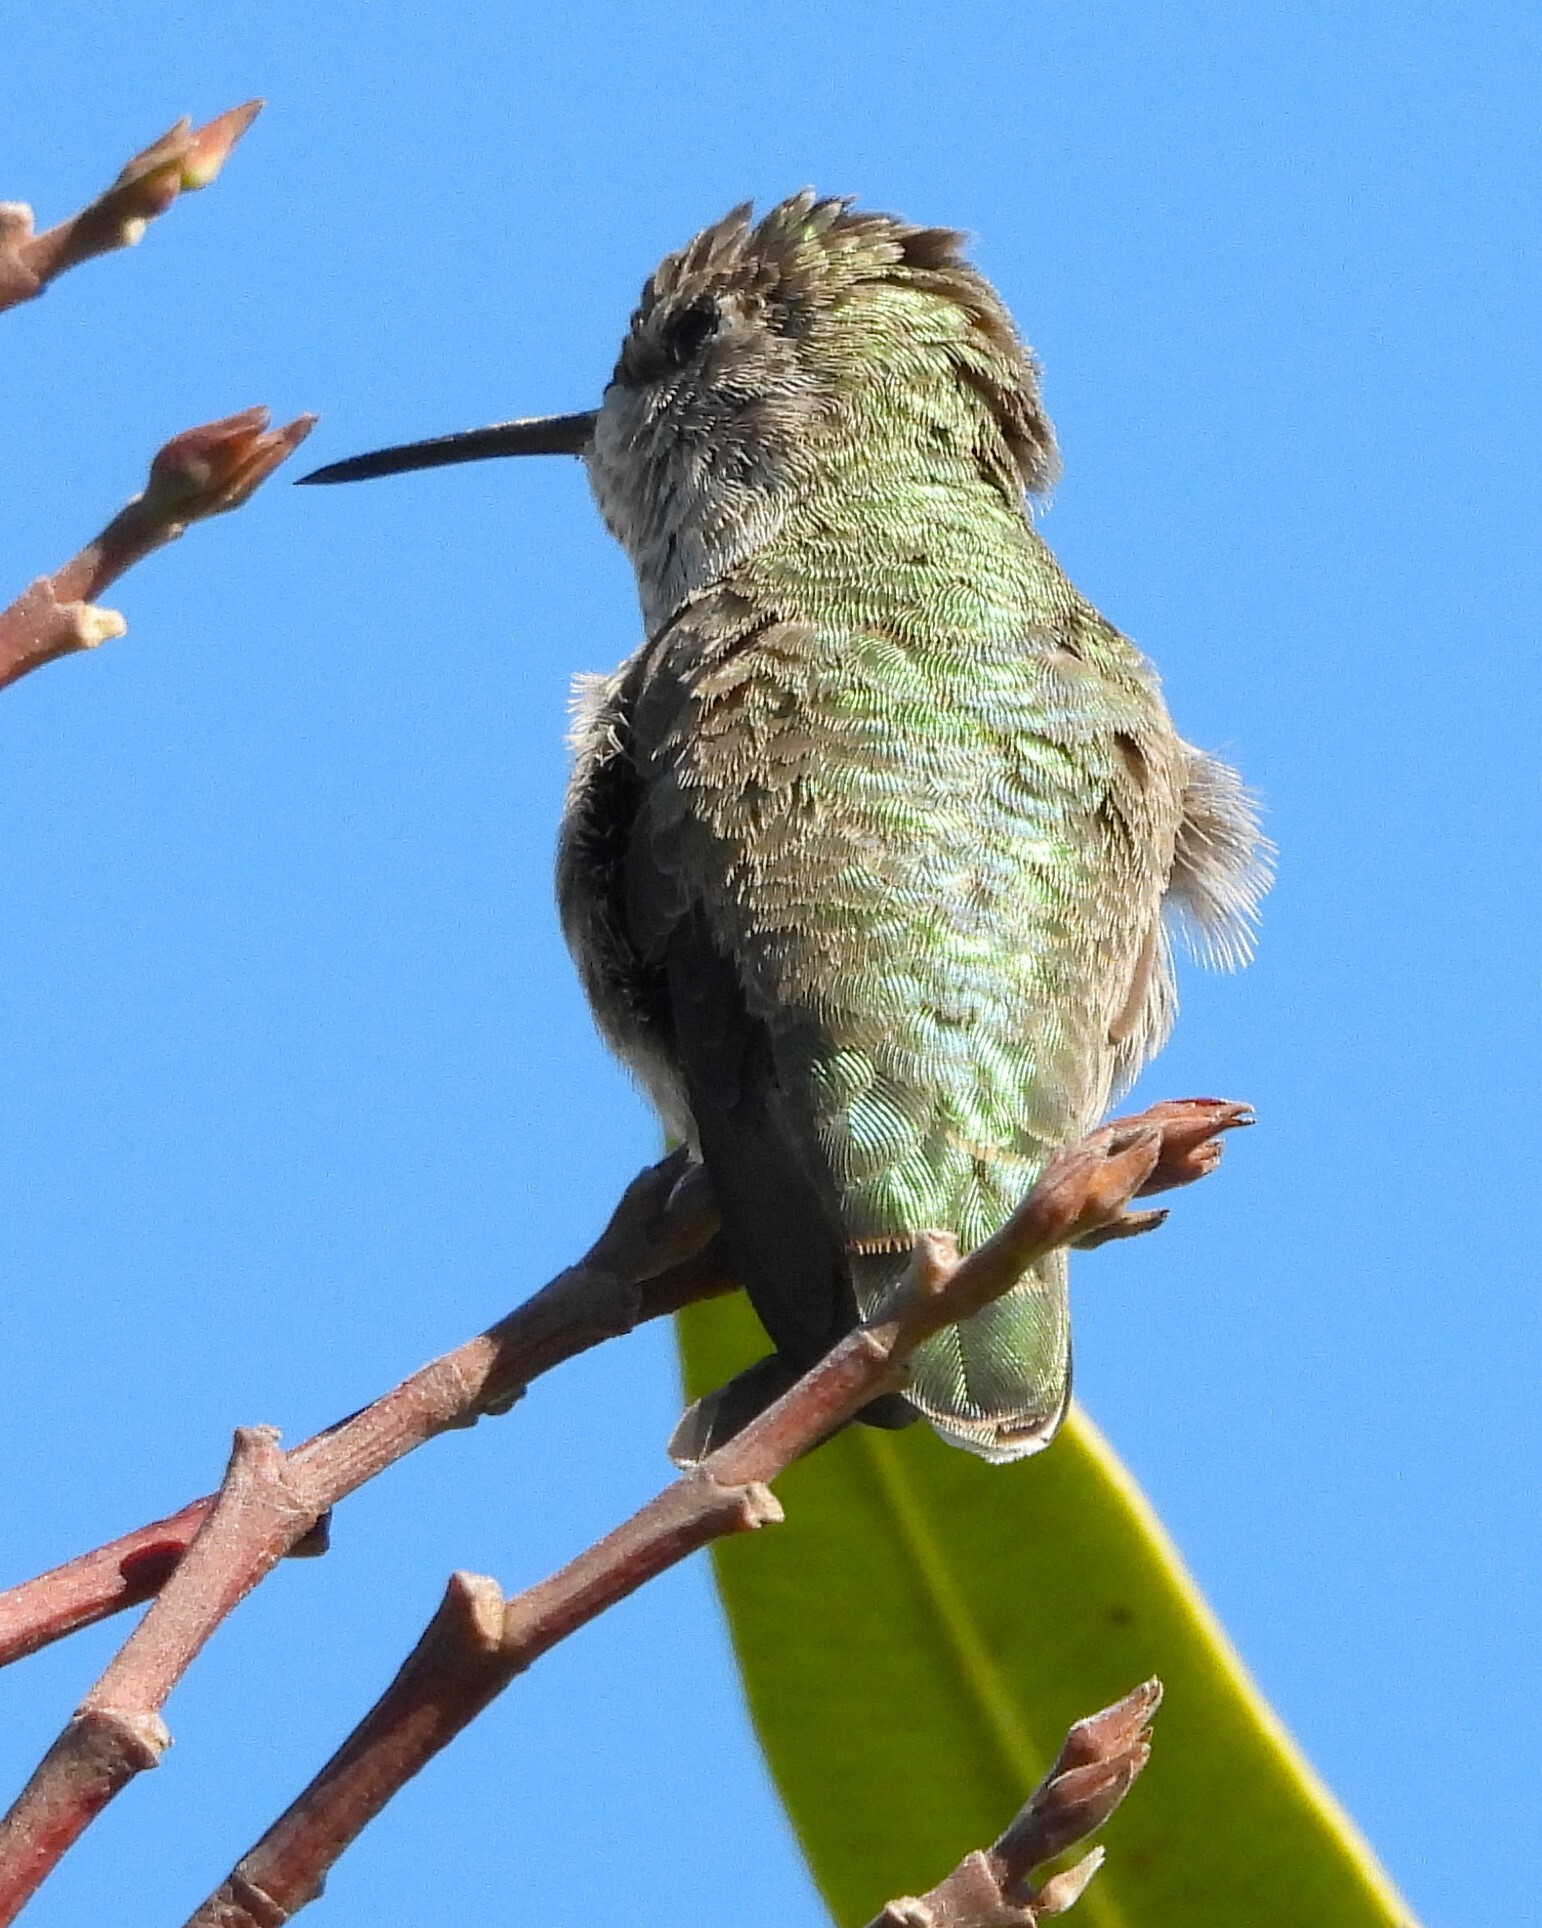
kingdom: Animalia
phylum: Chordata
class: Aves
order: Apodiformes
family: Trochilidae
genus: Calypte
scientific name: Calypte anna
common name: Anna's hummingbird
